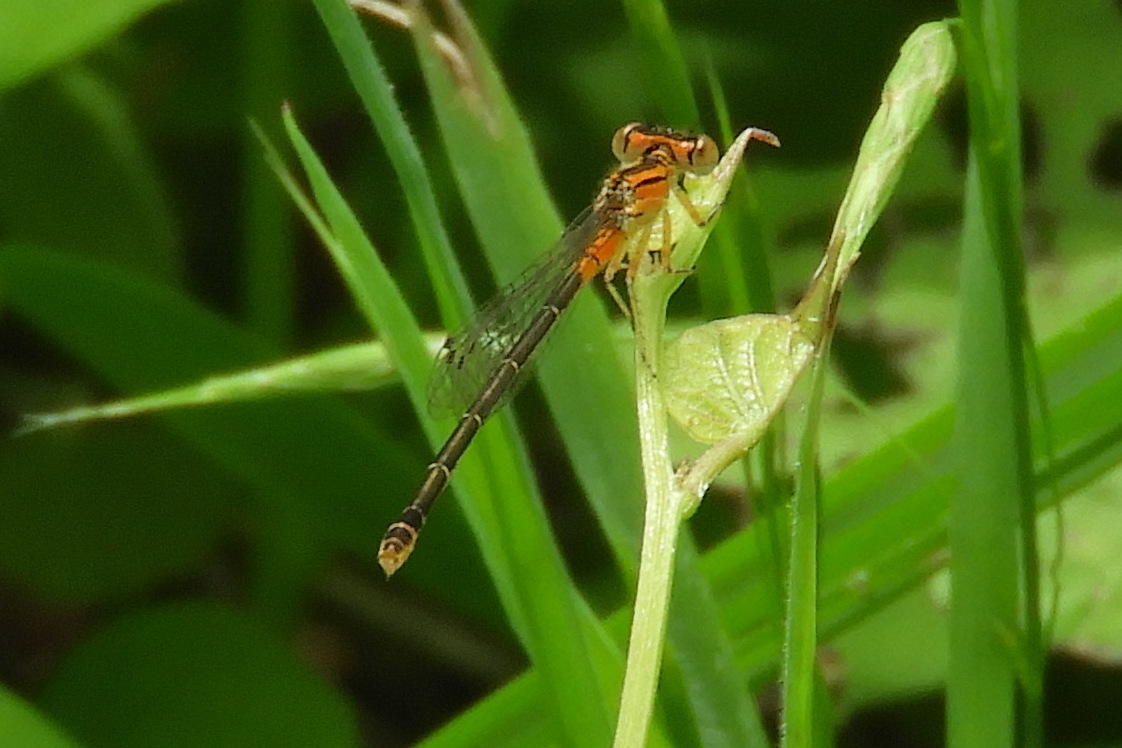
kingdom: Animalia
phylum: Arthropoda
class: Insecta
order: Odonata
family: Coenagrionidae
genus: Ischnura
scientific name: Ischnura verticalis
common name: Eastern forktail
